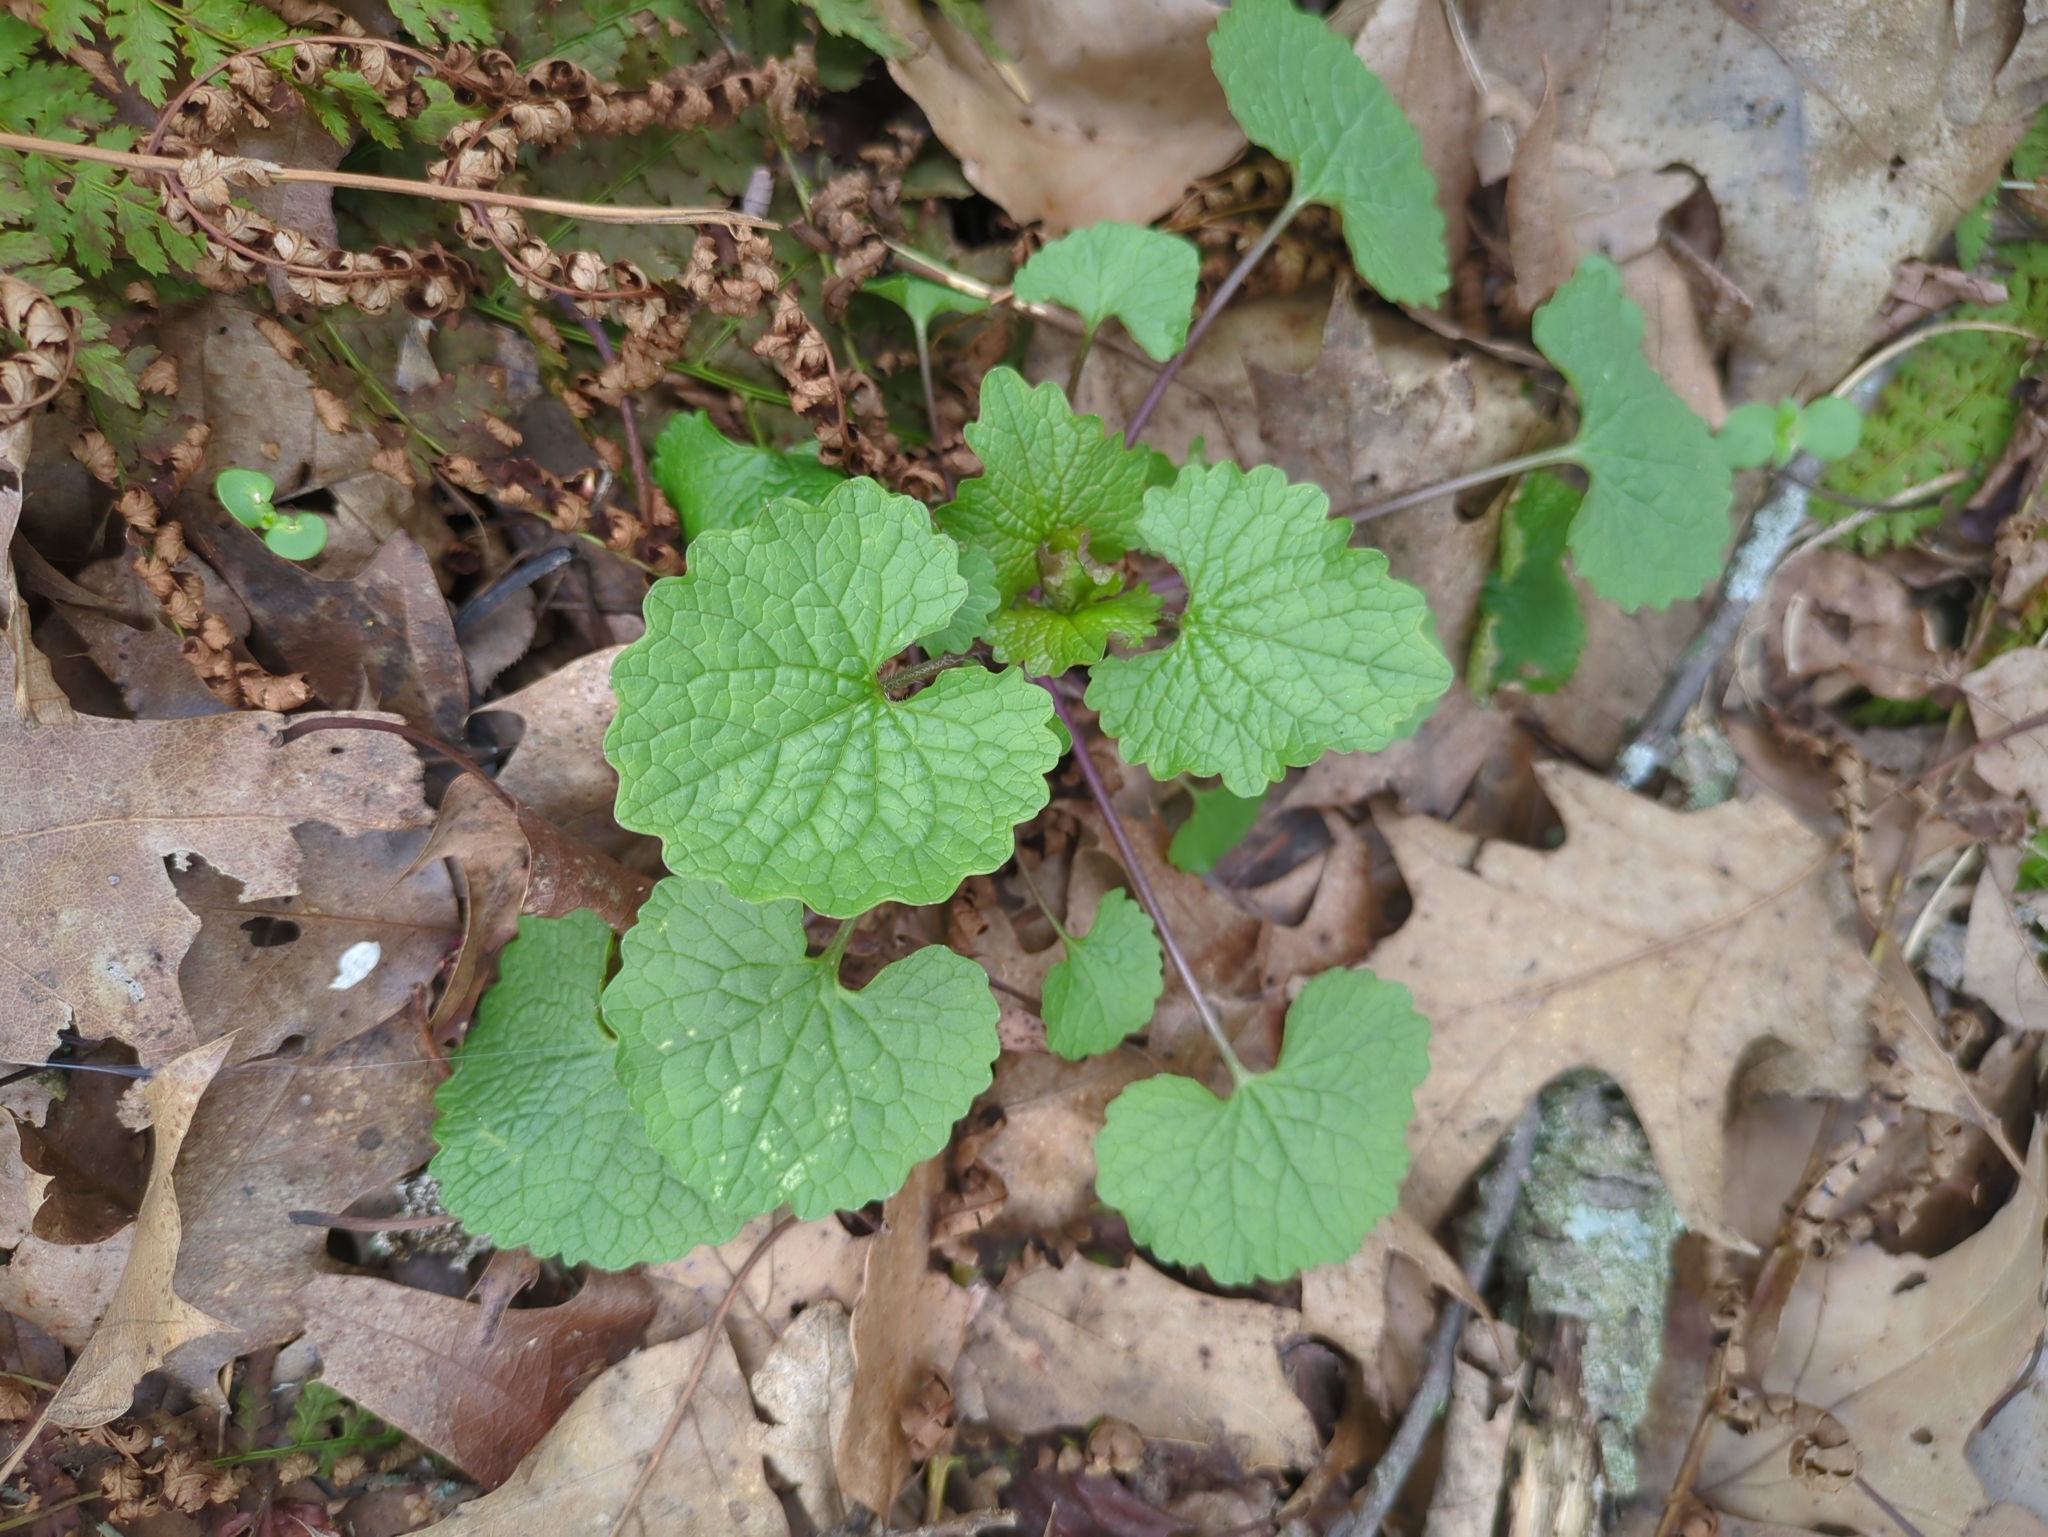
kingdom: Plantae
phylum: Tracheophyta
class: Magnoliopsida
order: Brassicales
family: Brassicaceae
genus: Alliaria
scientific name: Alliaria petiolata
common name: Garlic mustard
